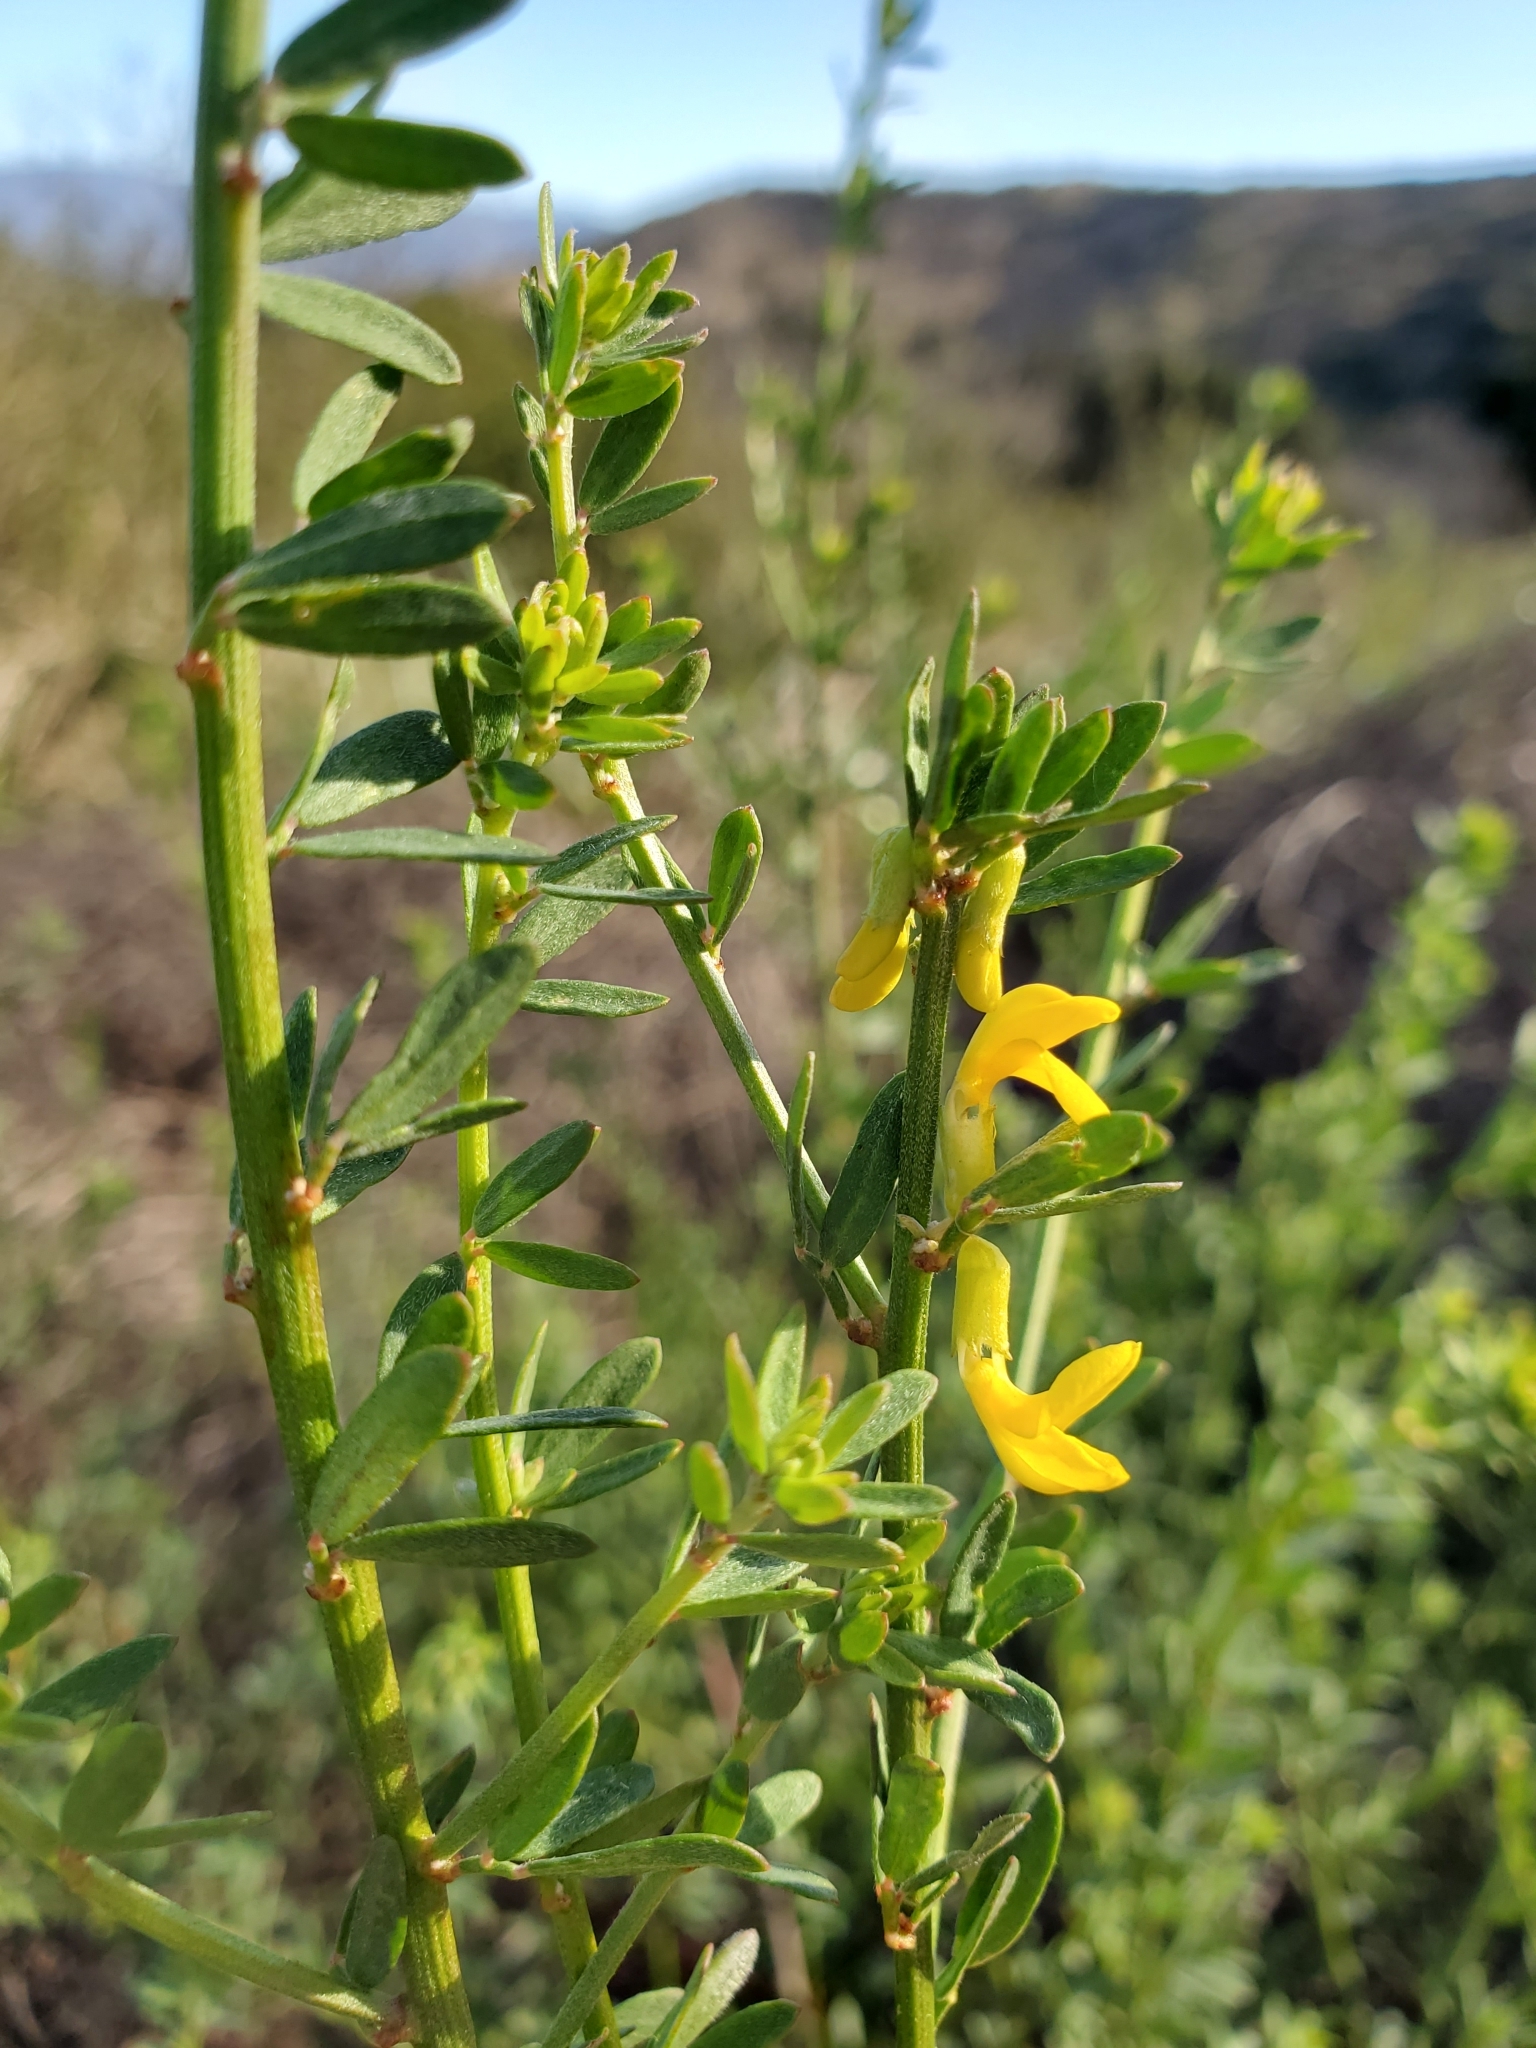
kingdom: Plantae
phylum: Tracheophyta
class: Magnoliopsida
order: Fabales
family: Fabaceae
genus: Acmispon
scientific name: Acmispon glaber
